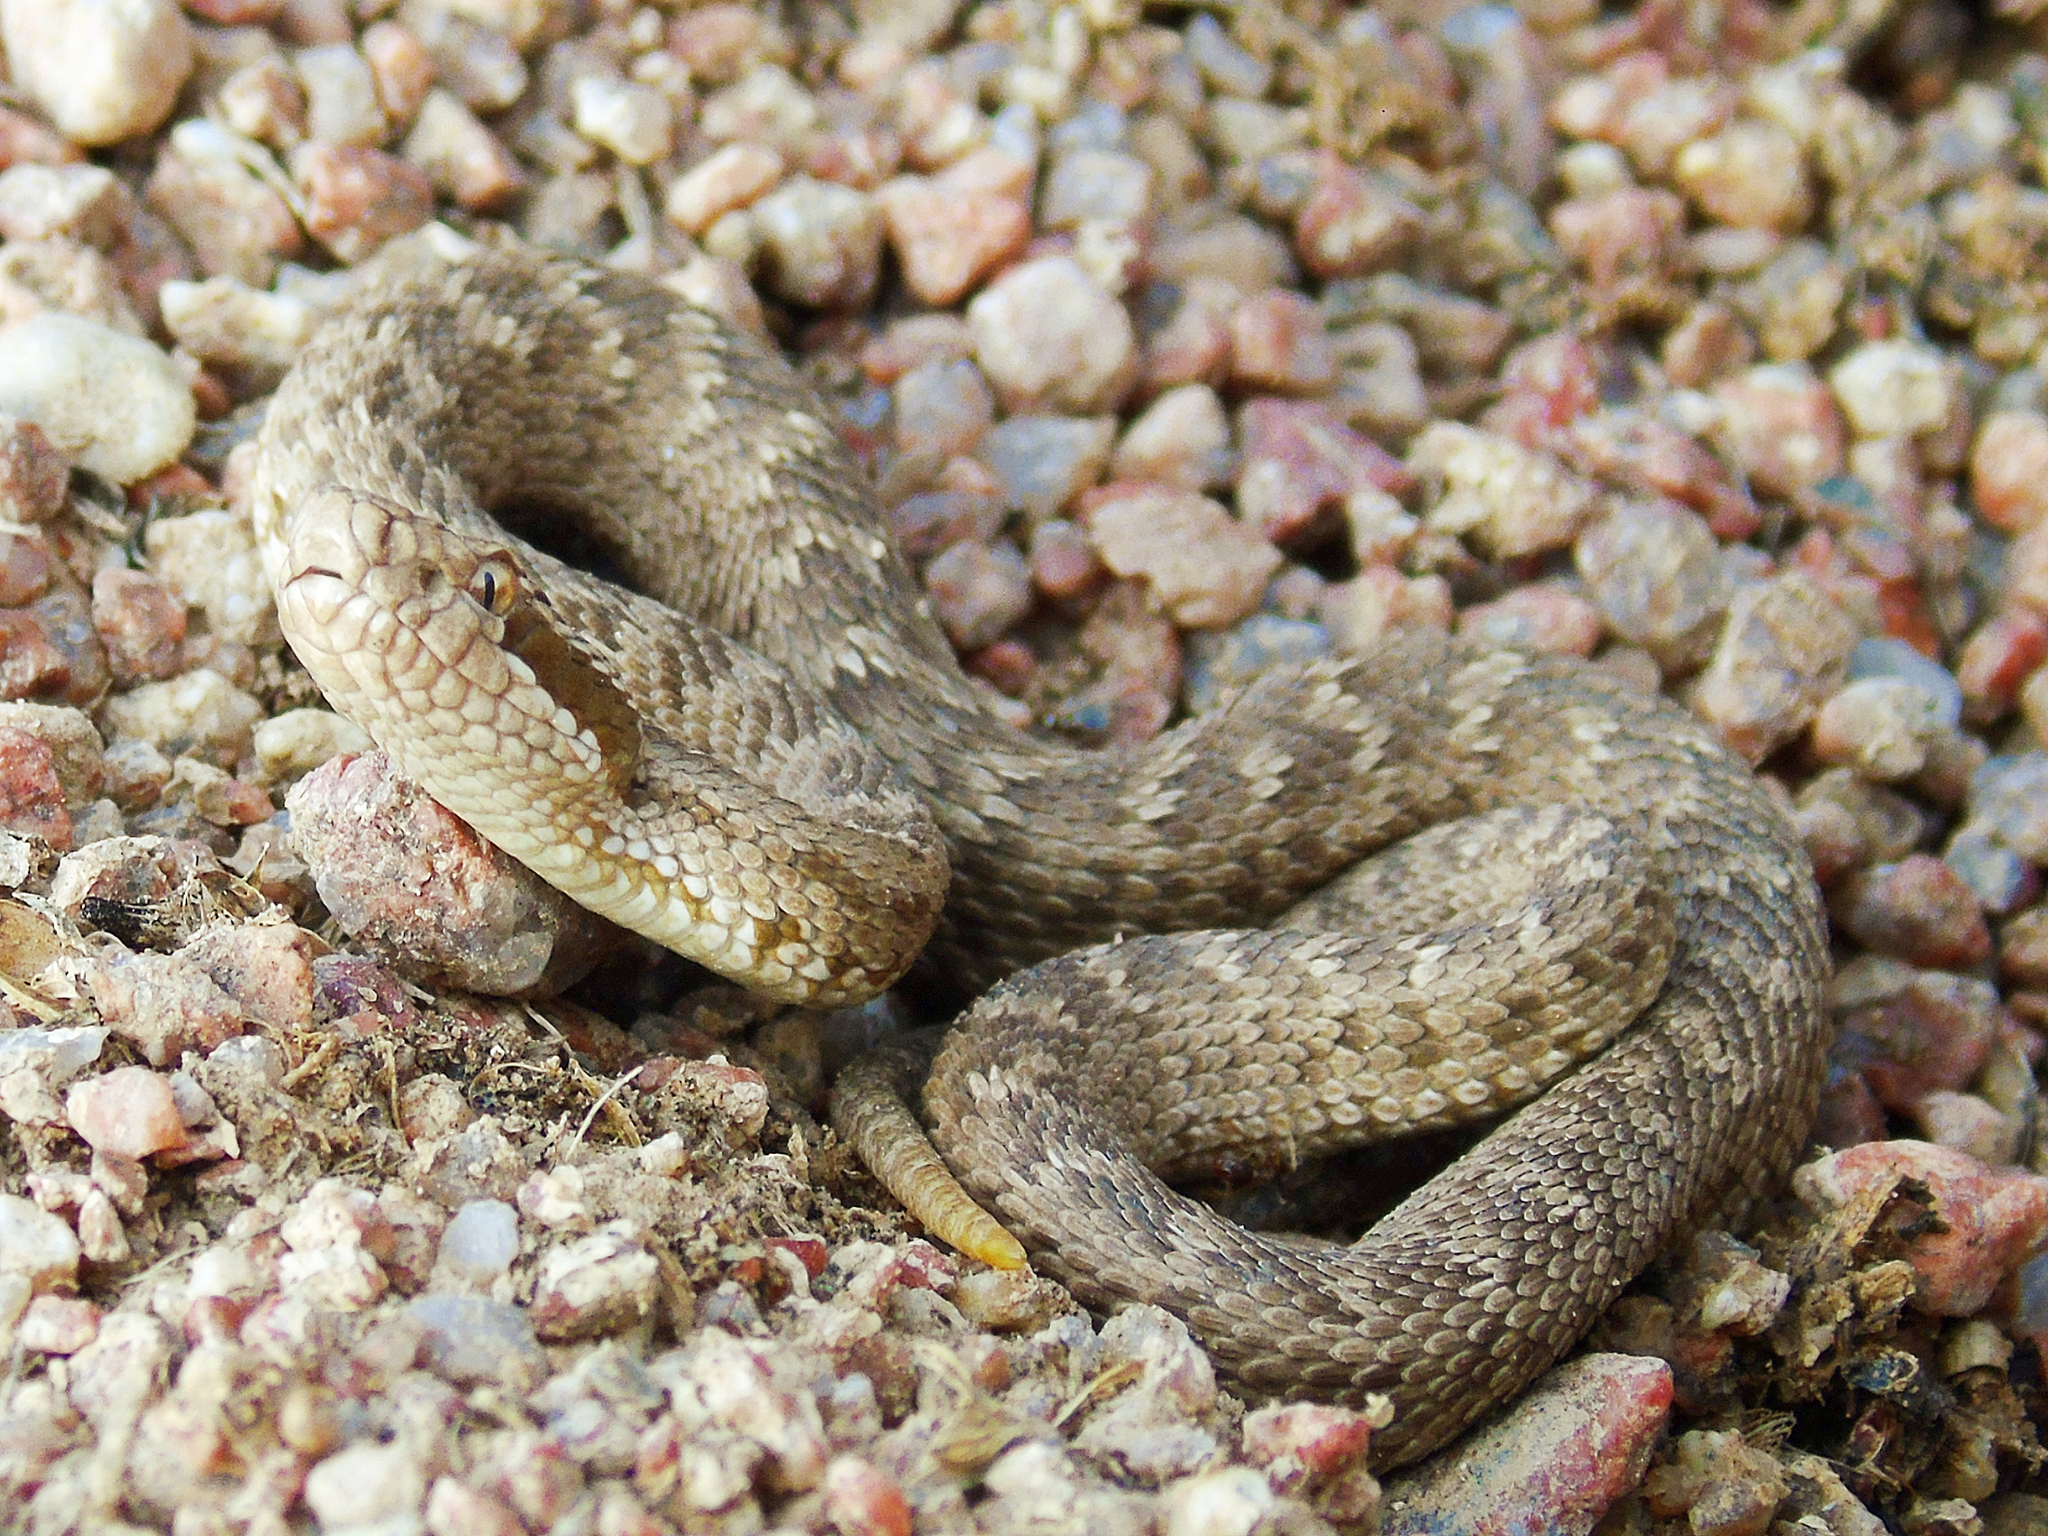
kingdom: Animalia
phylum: Chordata
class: Squamata
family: Viperidae
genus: Gloydius
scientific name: Gloydius halys
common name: Halys pit viper
